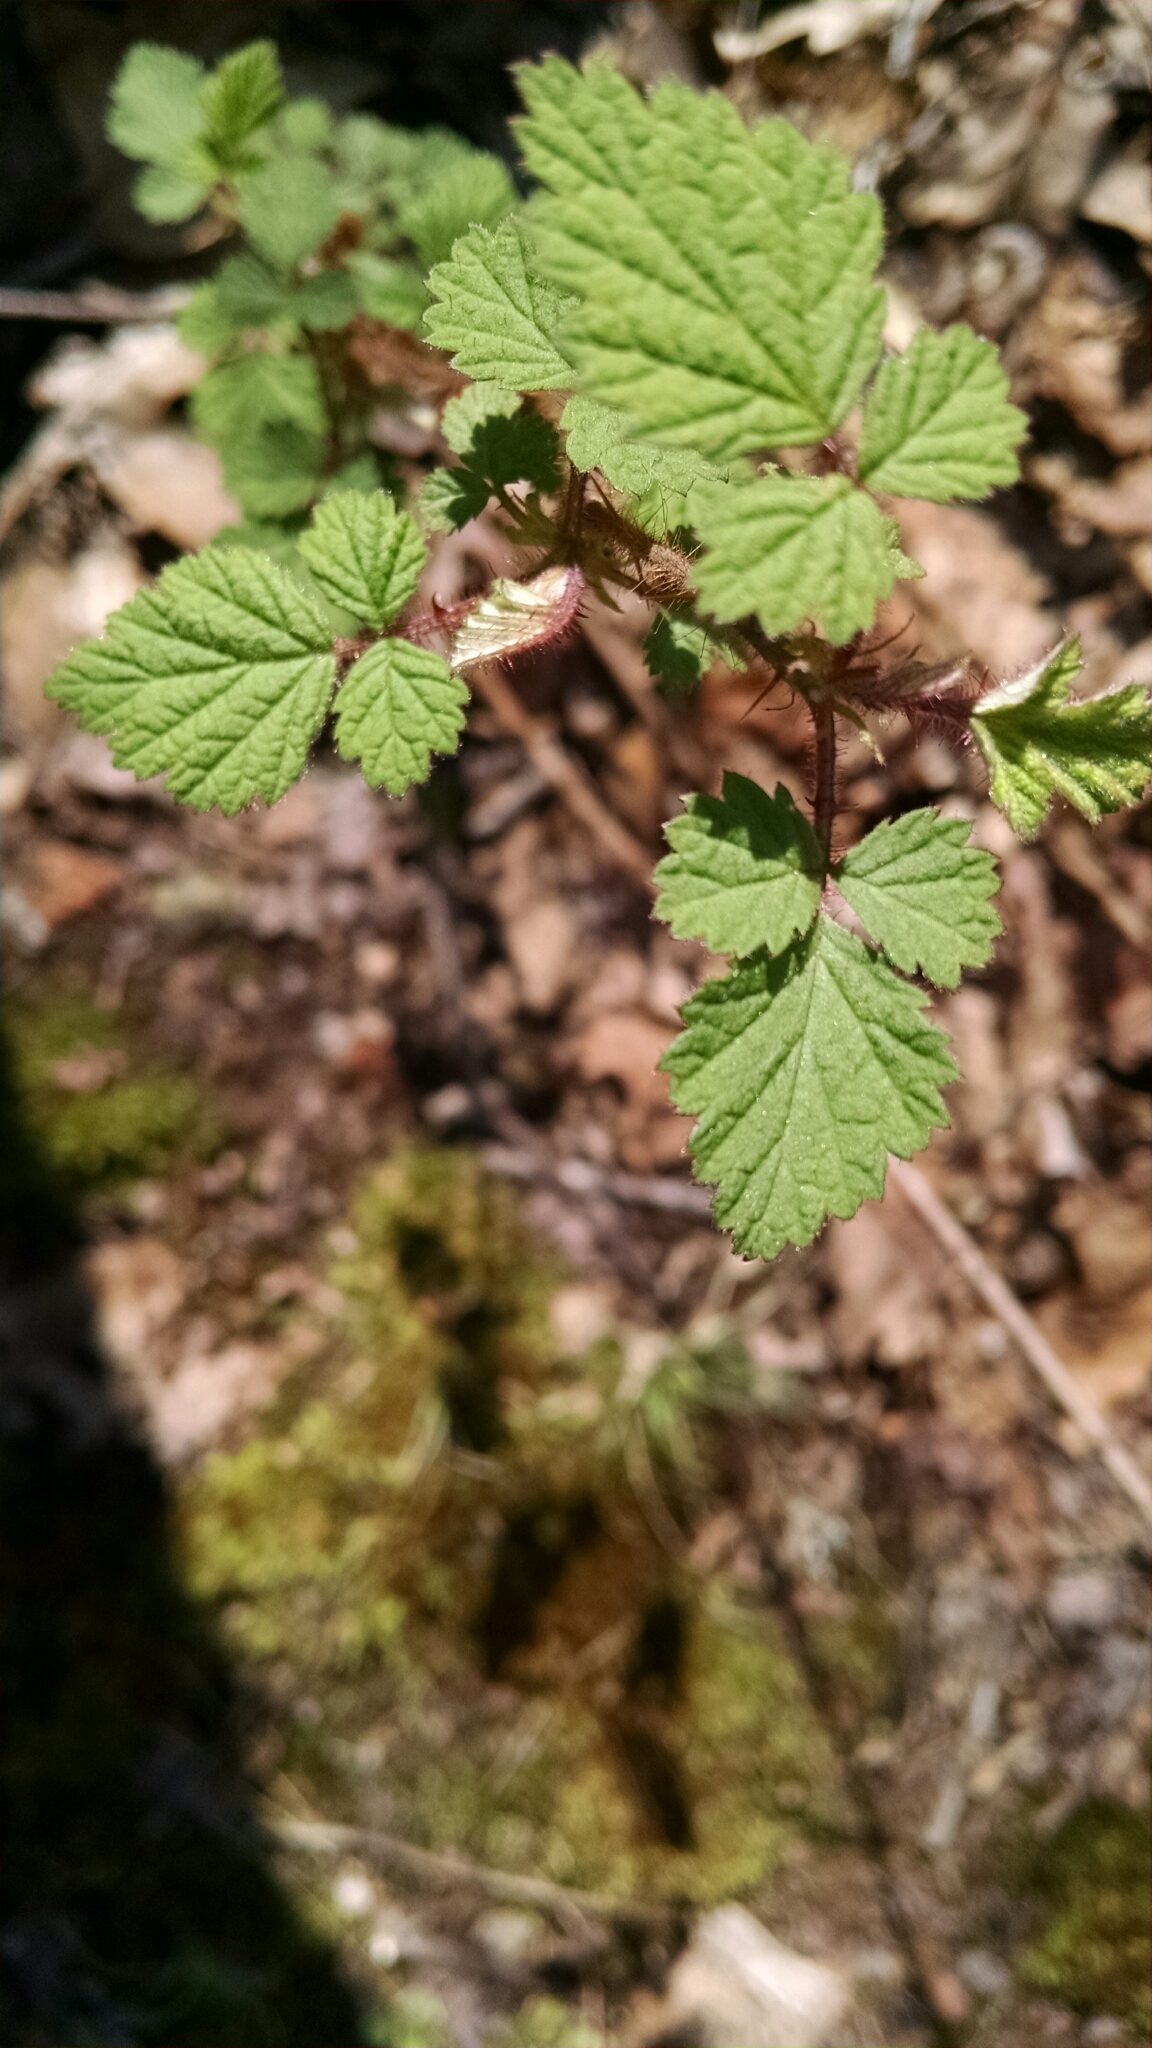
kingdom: Plantae
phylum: Tracheophyta
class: Magnoliopsida
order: Rosales
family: Rosaceae
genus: Rubus
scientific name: Rubus phoenicolasius
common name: Japanese wineberry
